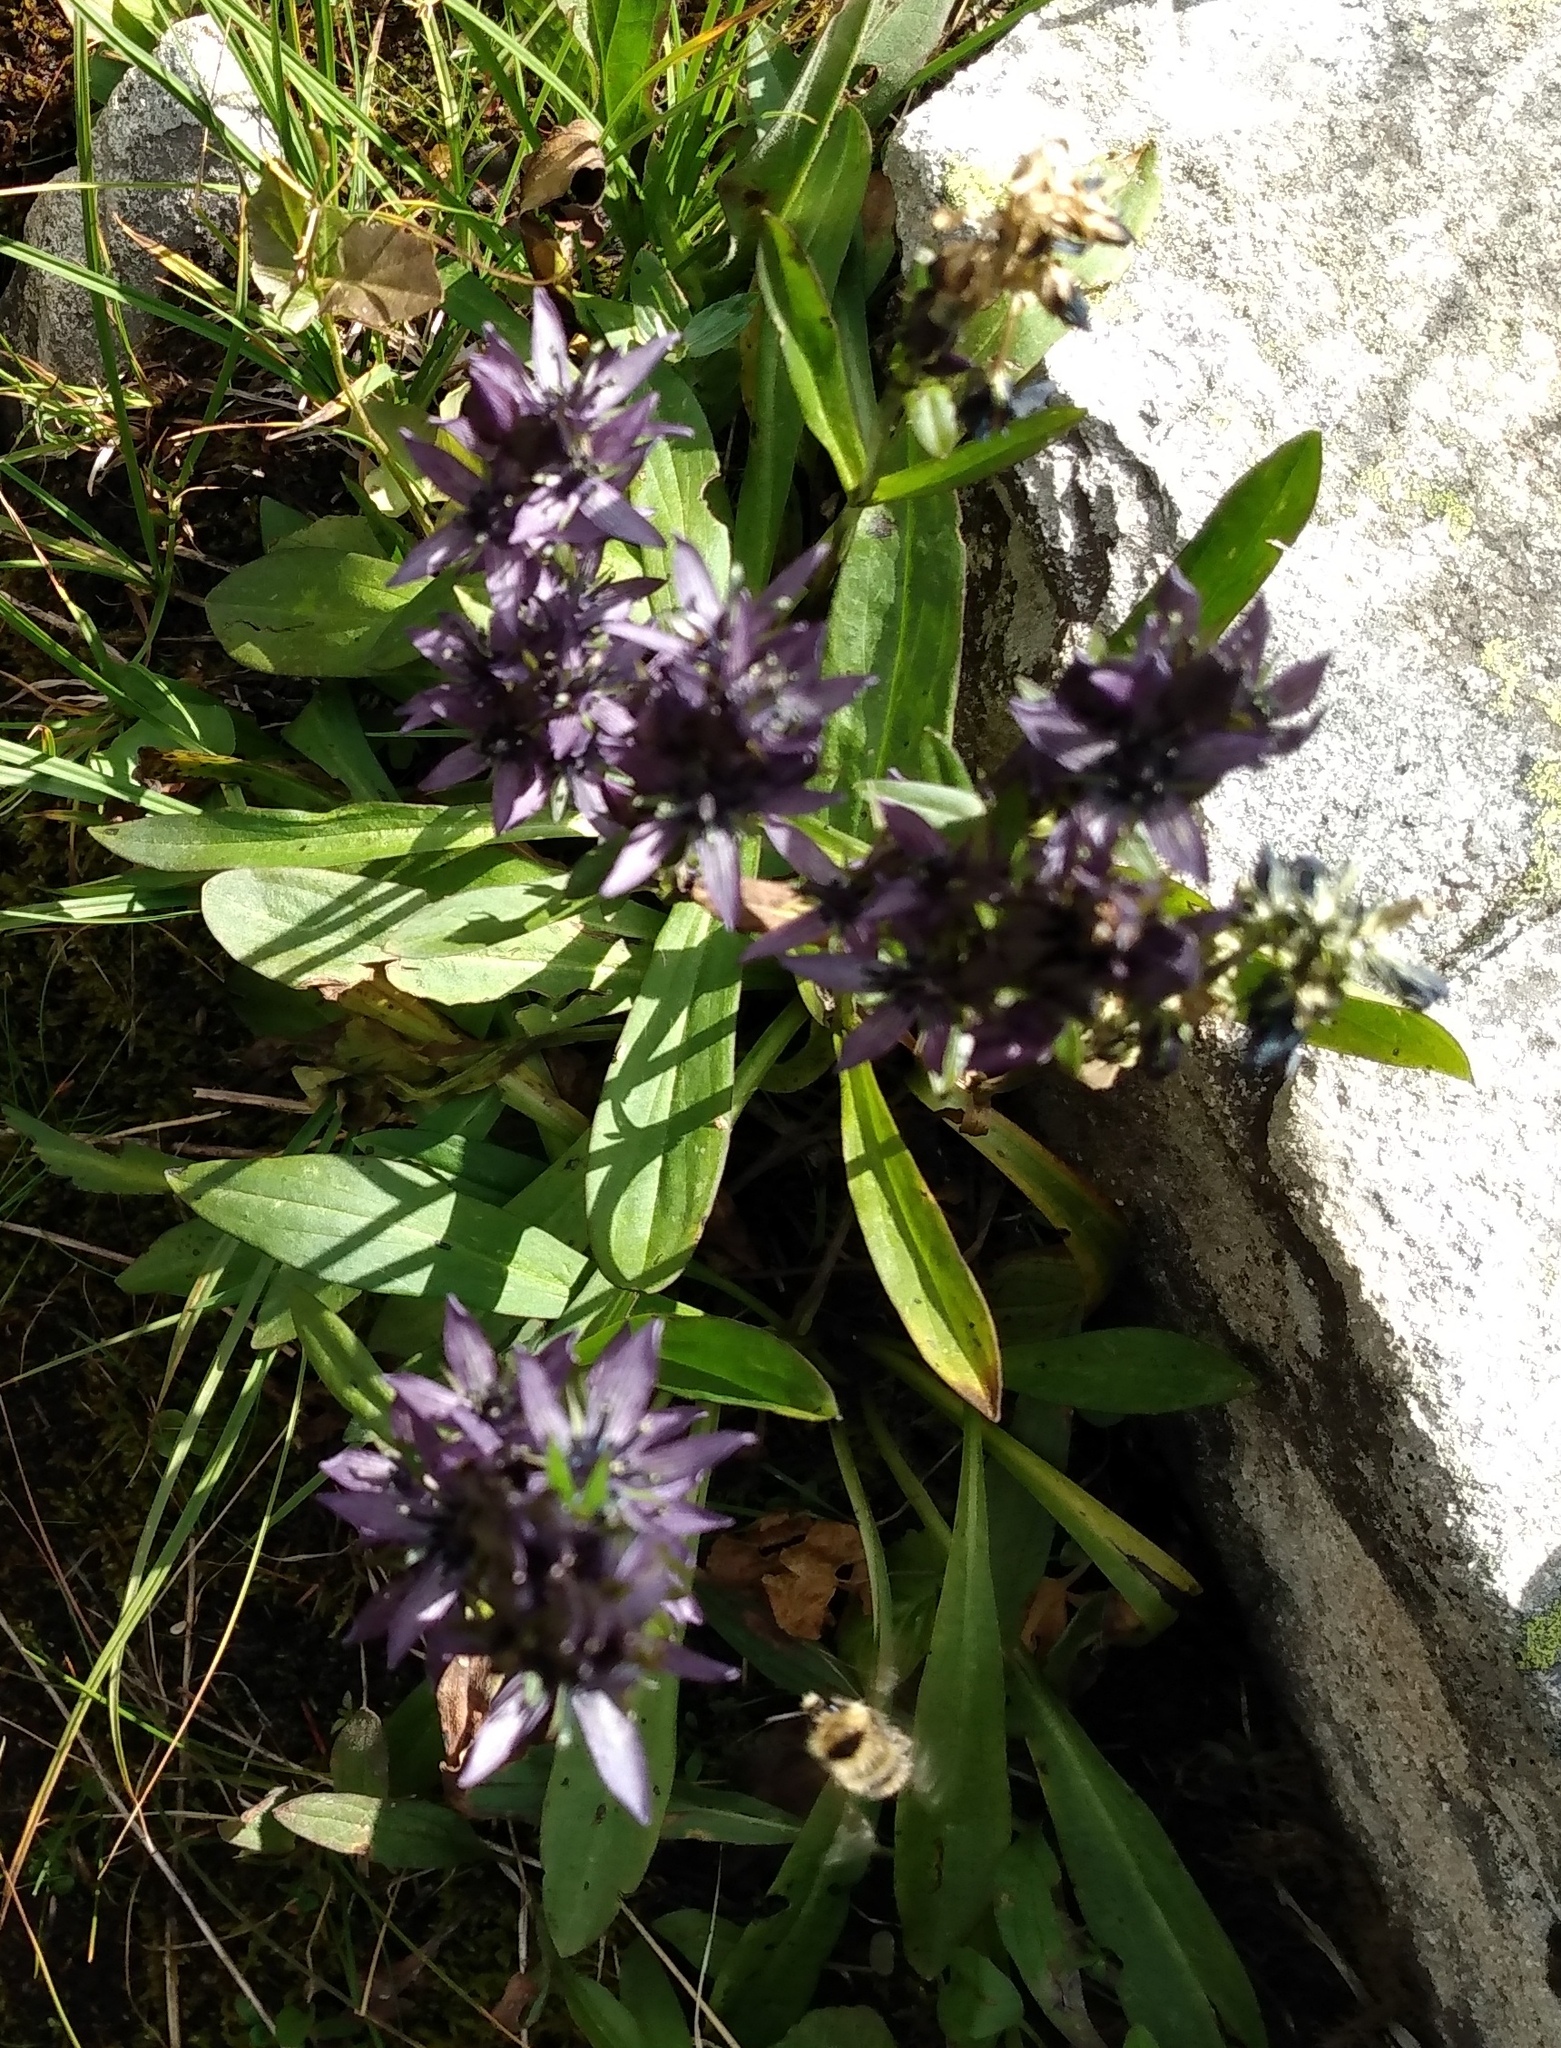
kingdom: Plantae
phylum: Tracheophyta
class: Magnoliopsida
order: Gentianales
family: Gentianaceae
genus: Swertia
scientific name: Swertia perennis
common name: Alpine bog swertia
